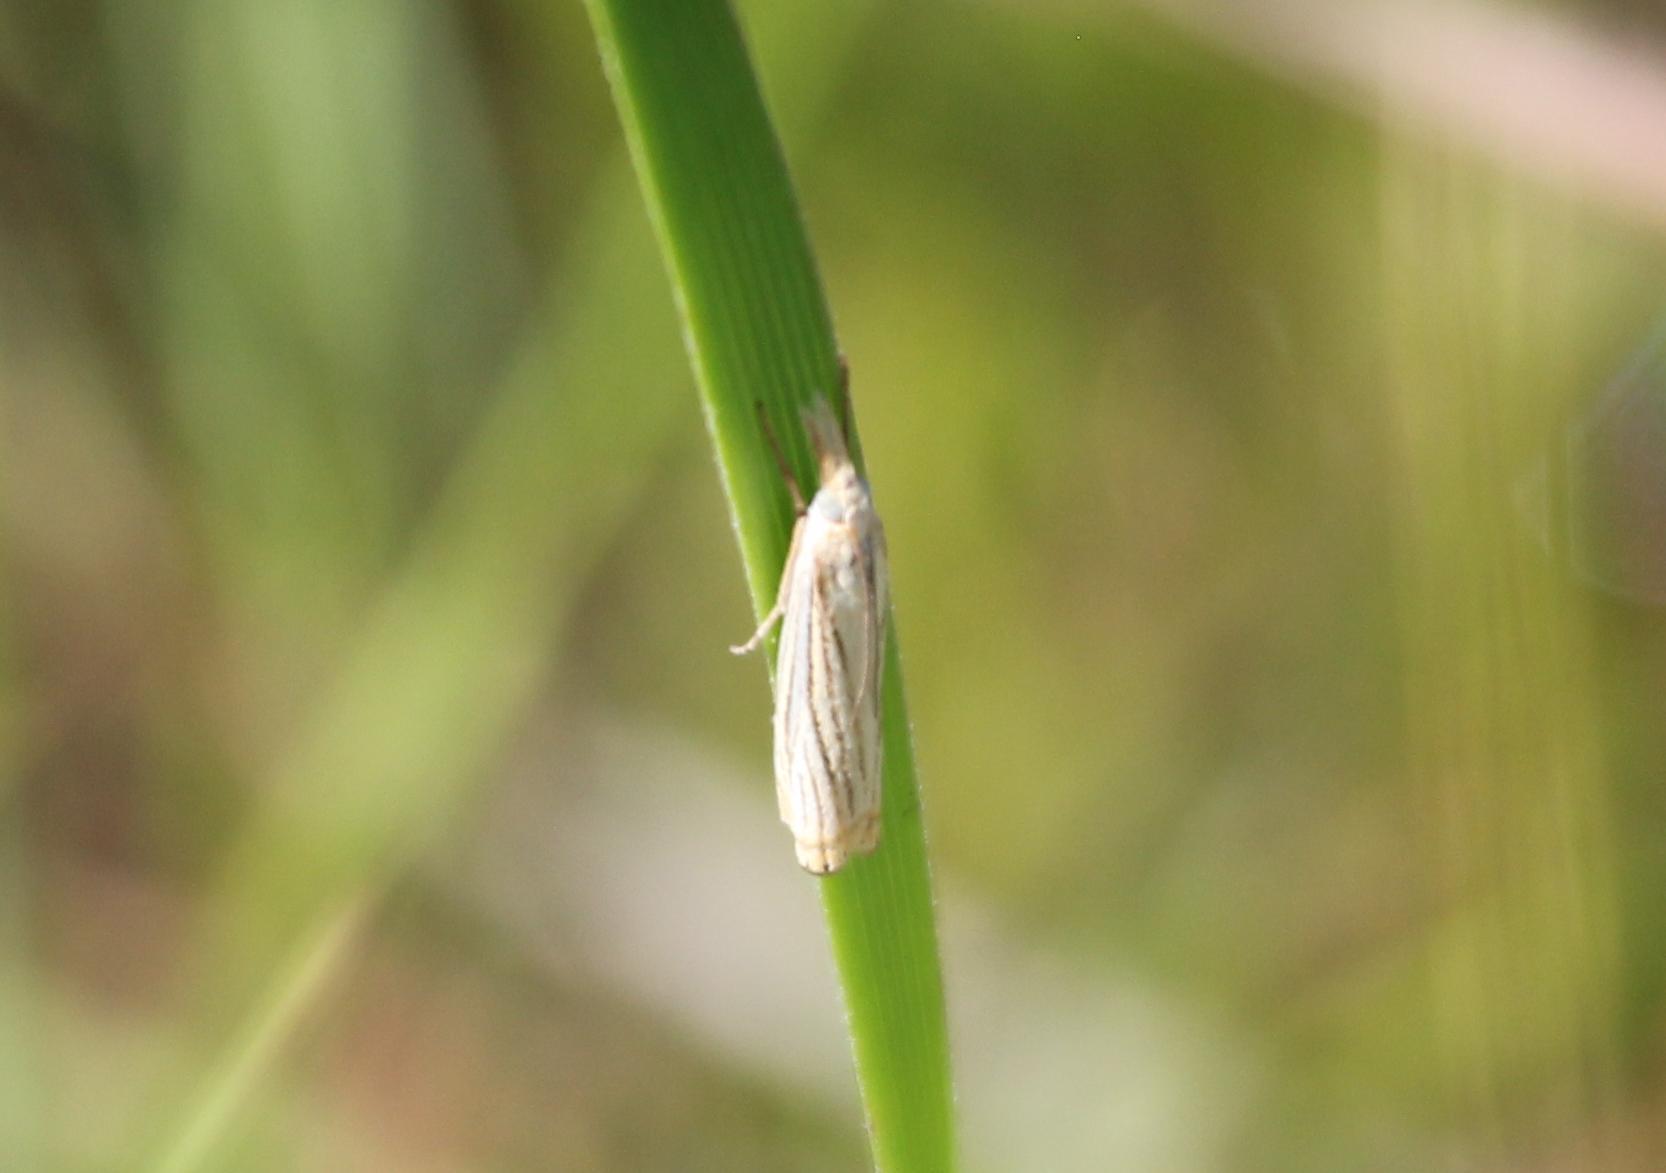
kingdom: Animalia
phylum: Arthropoda
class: Insecta
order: Lepidoptera
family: Crambidae
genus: Crambus
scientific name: Crambus multilinellus
